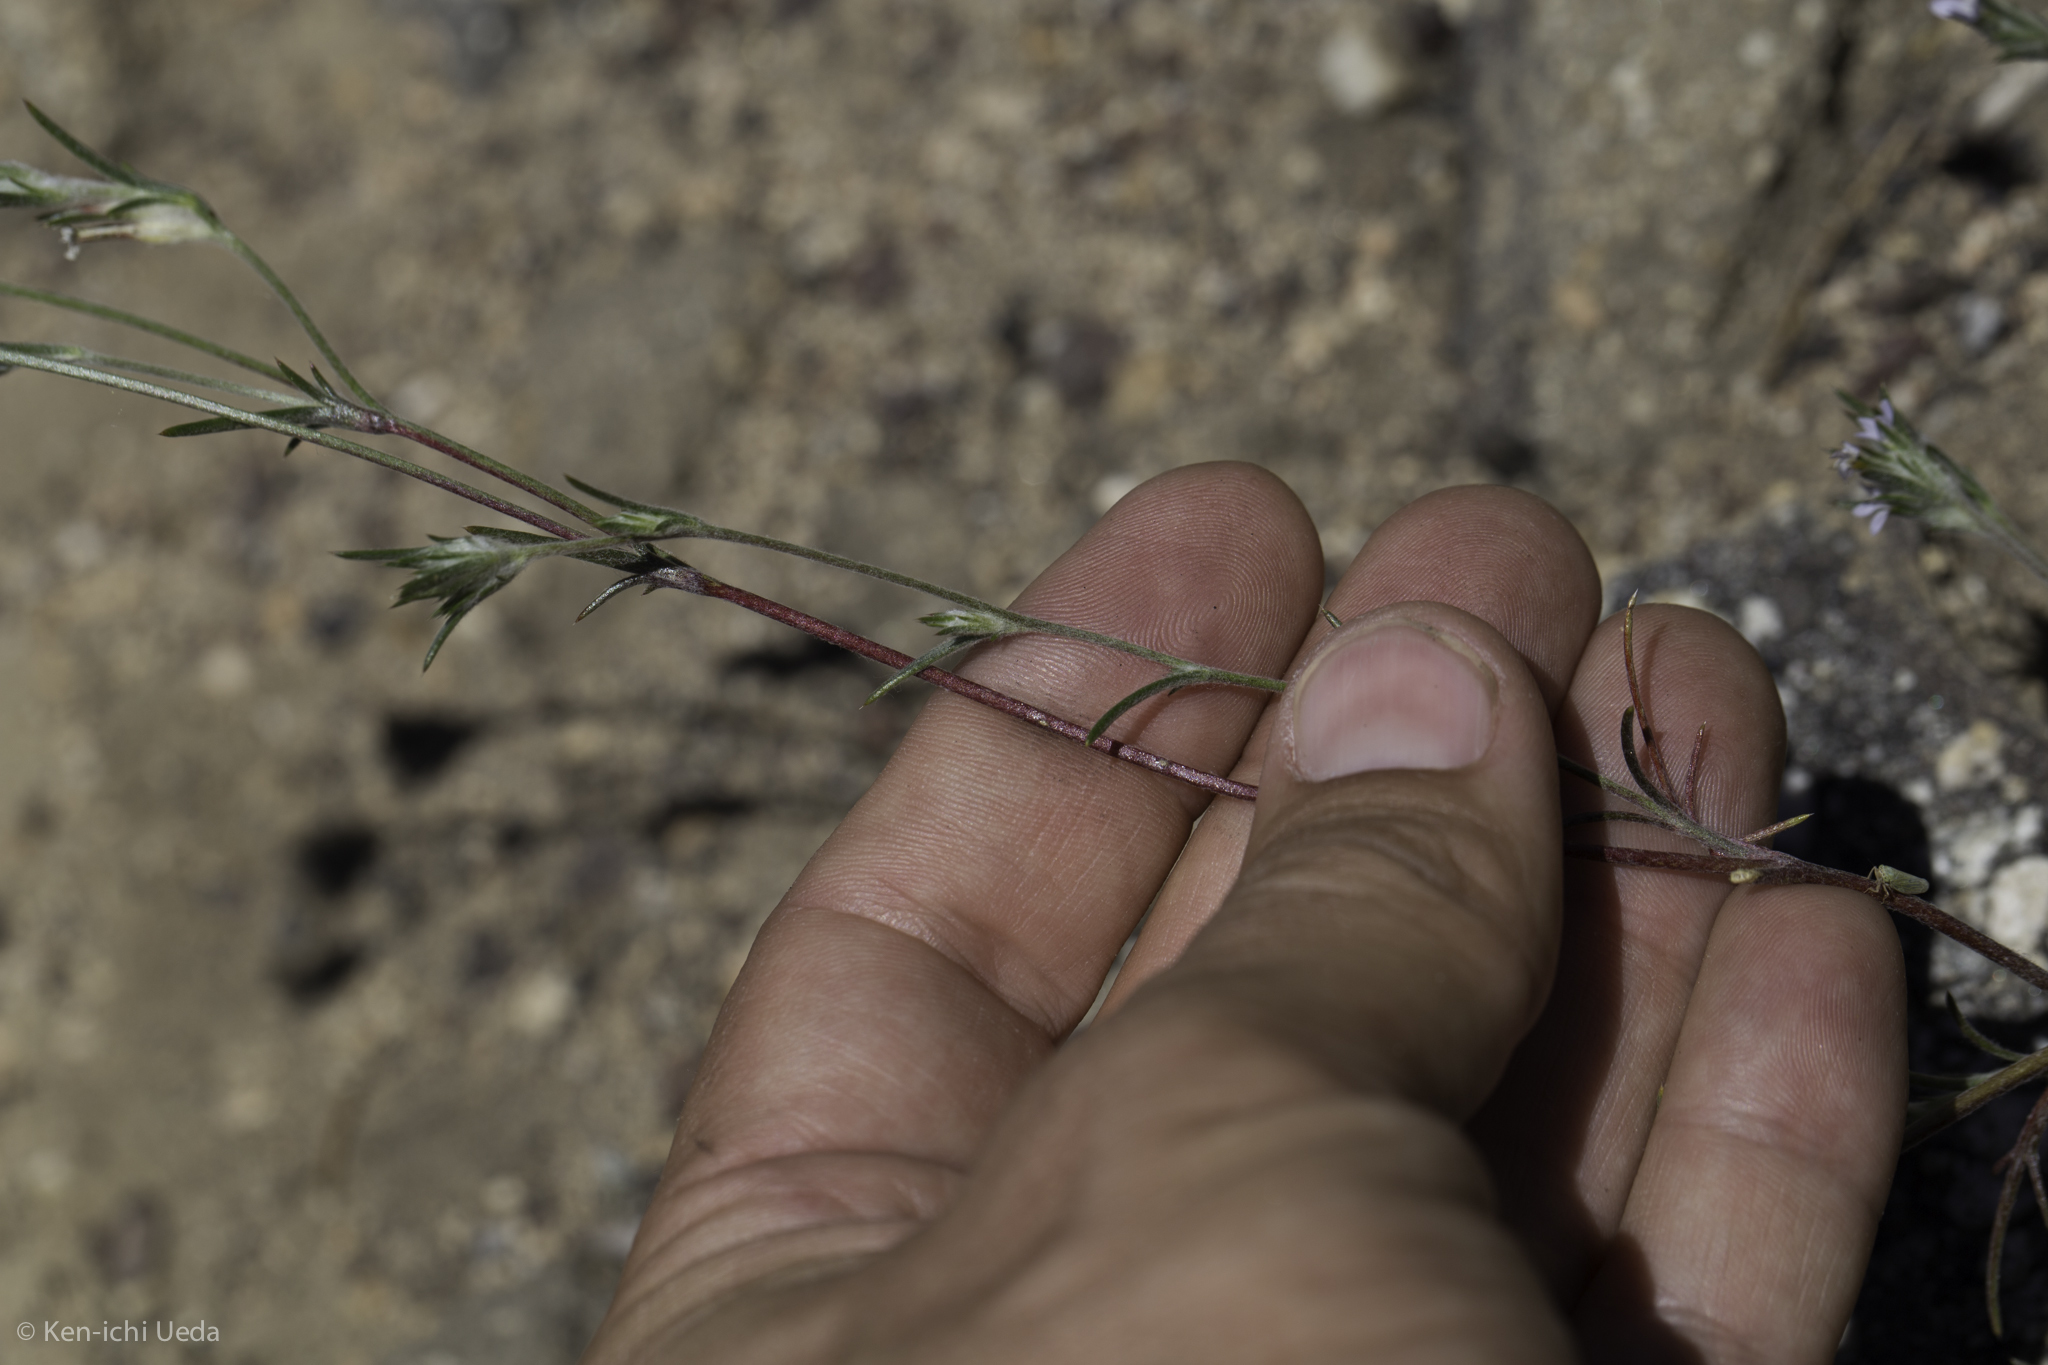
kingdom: Plantae
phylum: Tracheophyta
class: Magnoliopsida
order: Ericales
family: Polemoniaceae
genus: Eriastrum
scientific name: Eriastrum signatum
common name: Great basin woollystar
